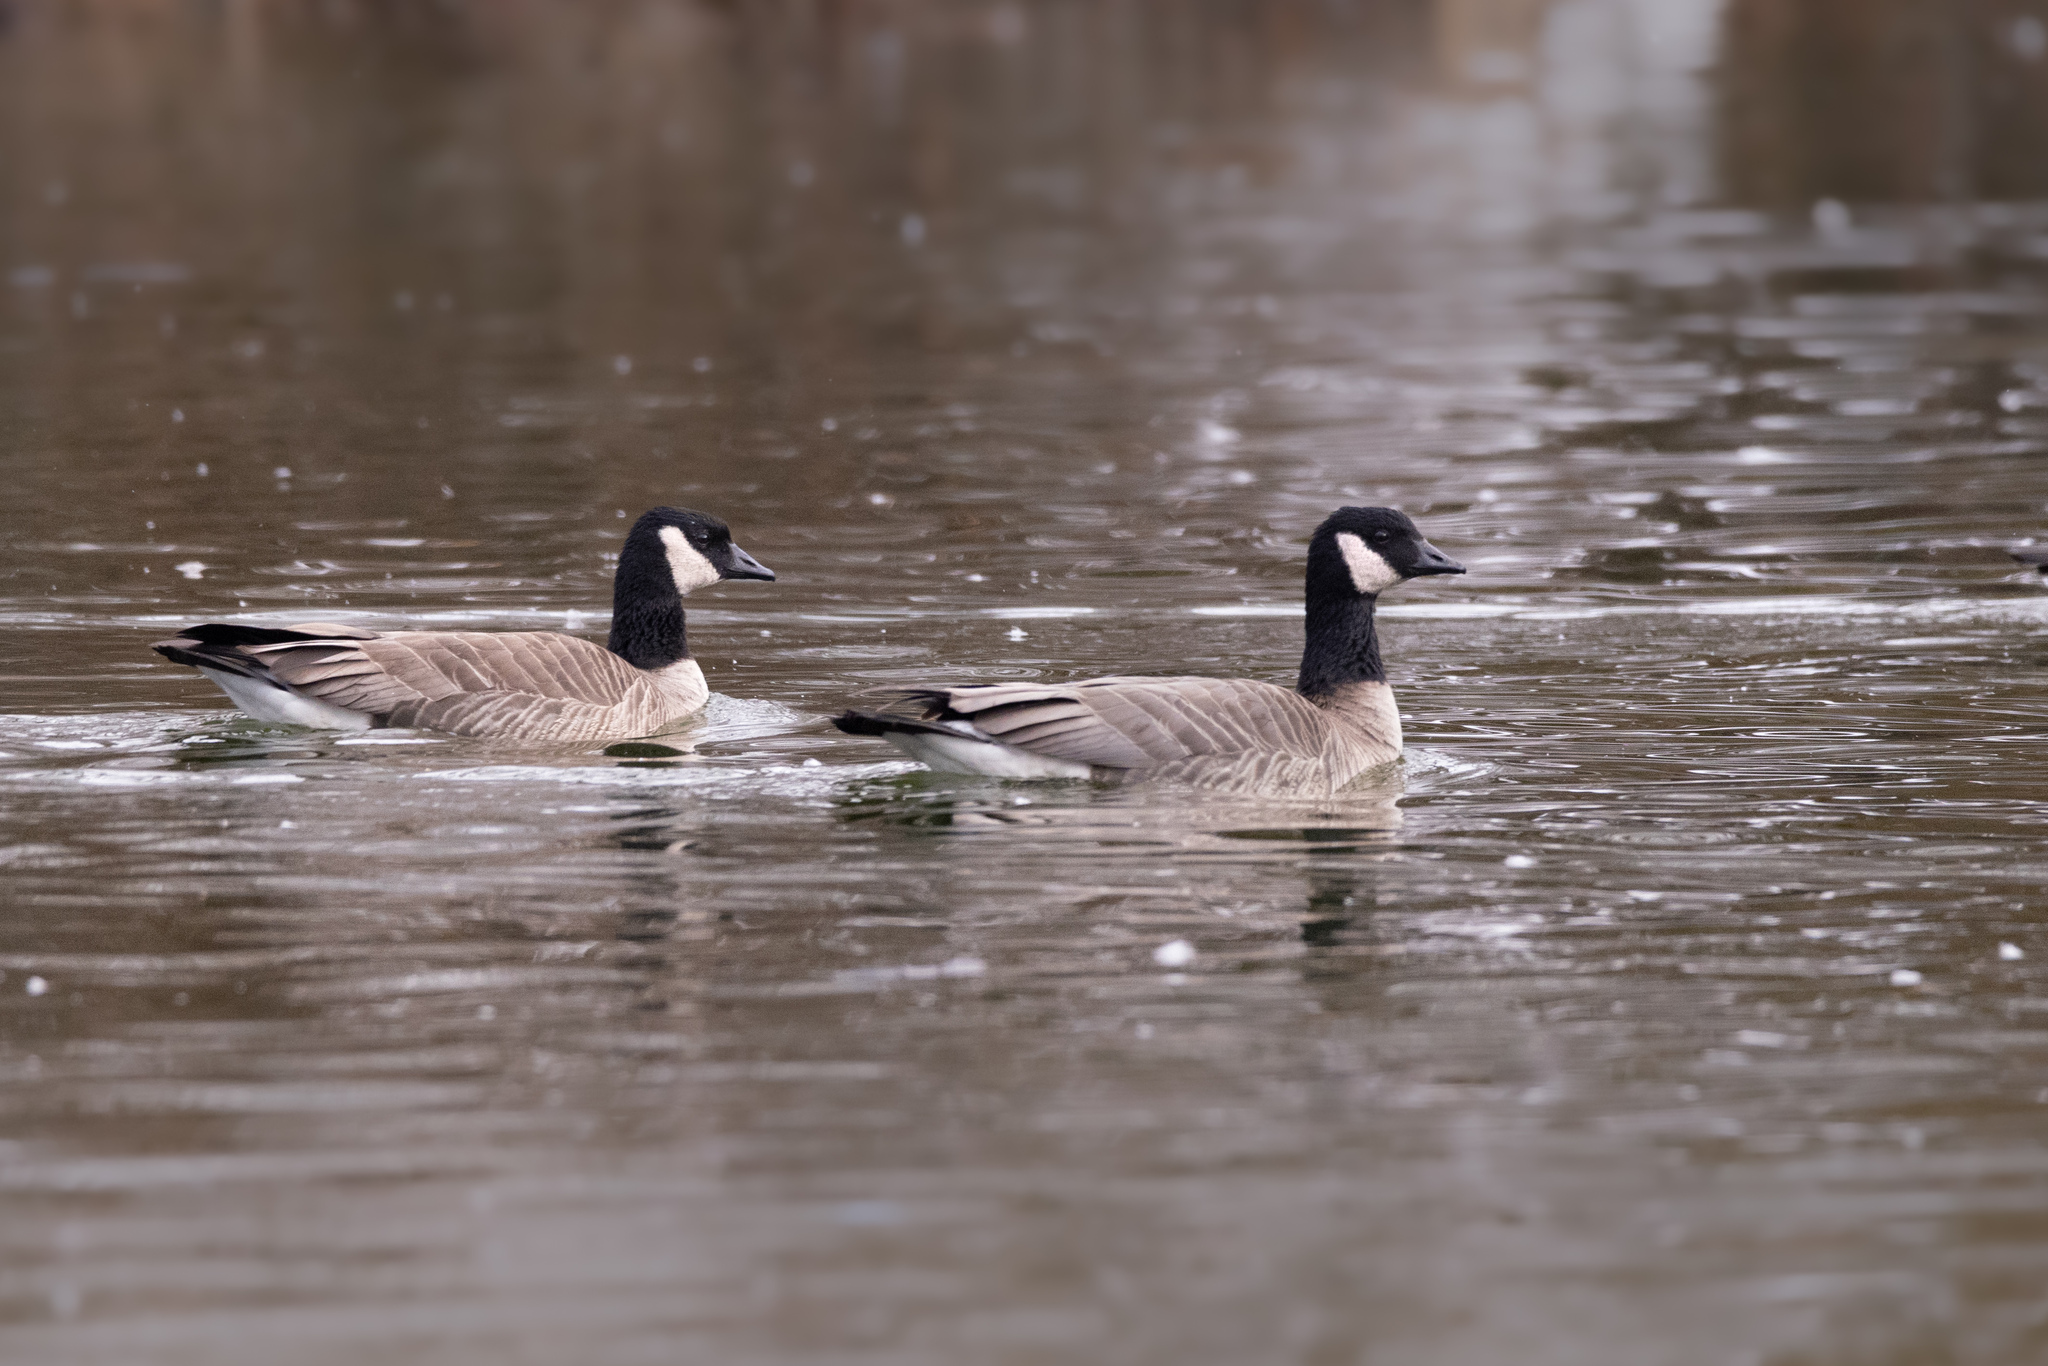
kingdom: Animalia
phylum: Chordata
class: Aves
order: Anseriformes
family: Anatidae
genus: Branta
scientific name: Branta hutchinsii
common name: Cackling goose
